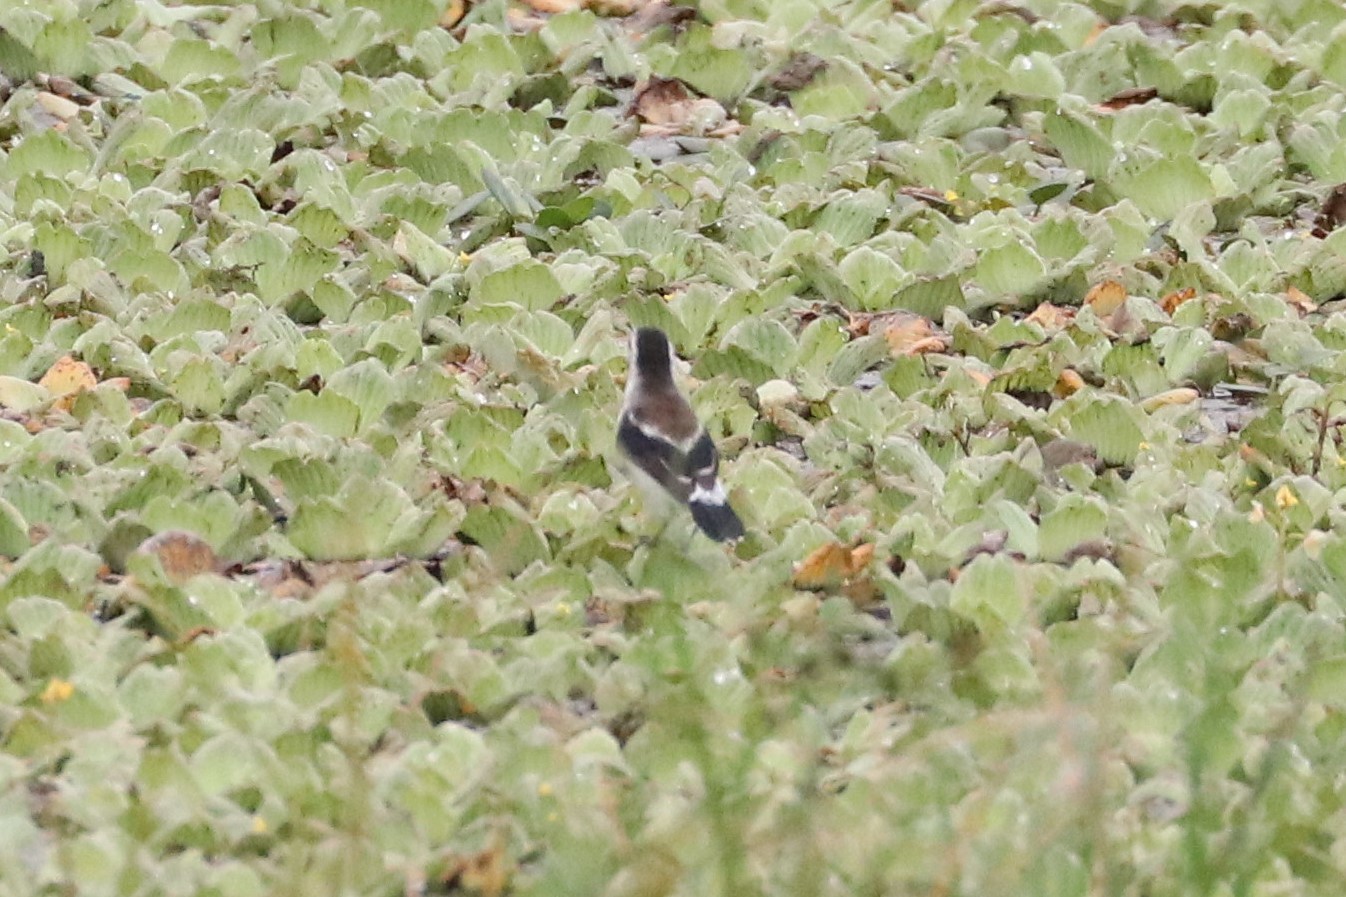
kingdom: Animalia
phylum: Chordata
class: Aves
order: Passeriformes
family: Tyrannidae
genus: Fluvicola
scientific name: Fluvicola pica
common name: Pied water-tyrant
